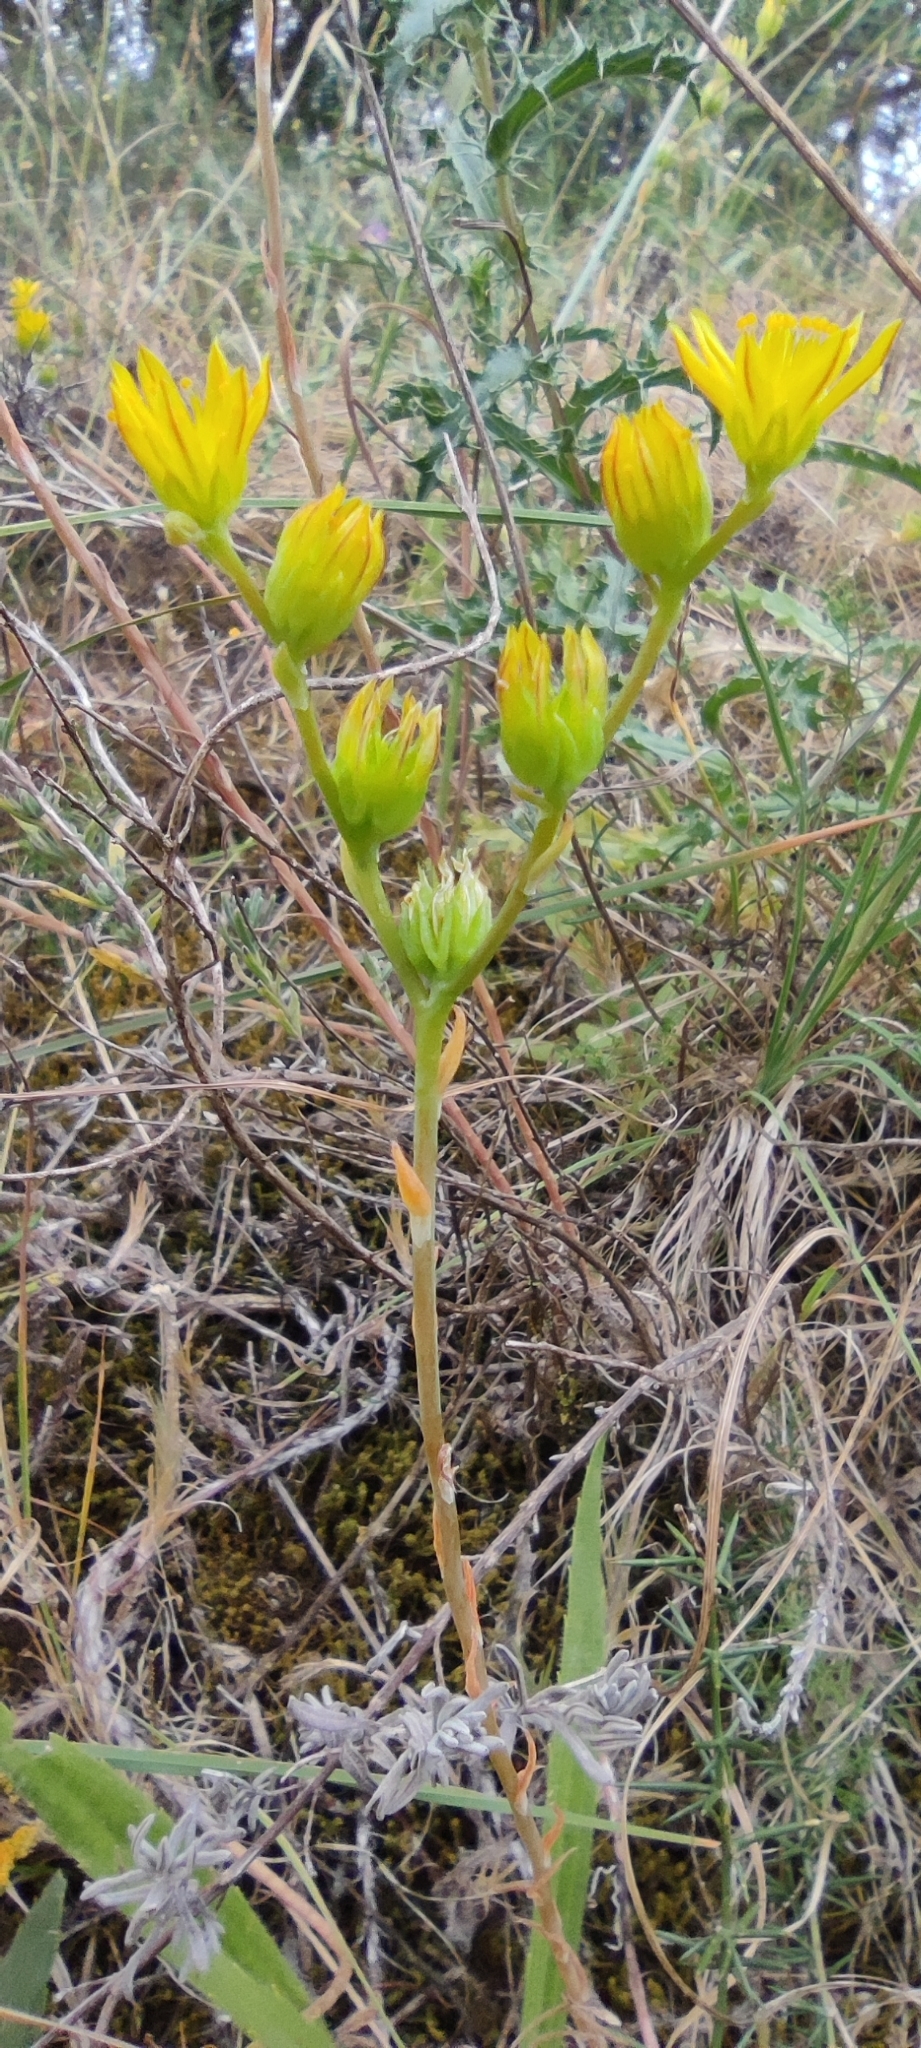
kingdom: Plantae
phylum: Tracheophyta
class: Magnoliopsida
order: Saxifragales
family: Crassulaceae
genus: Petrosedum
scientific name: Petrosedum amplexicaule
